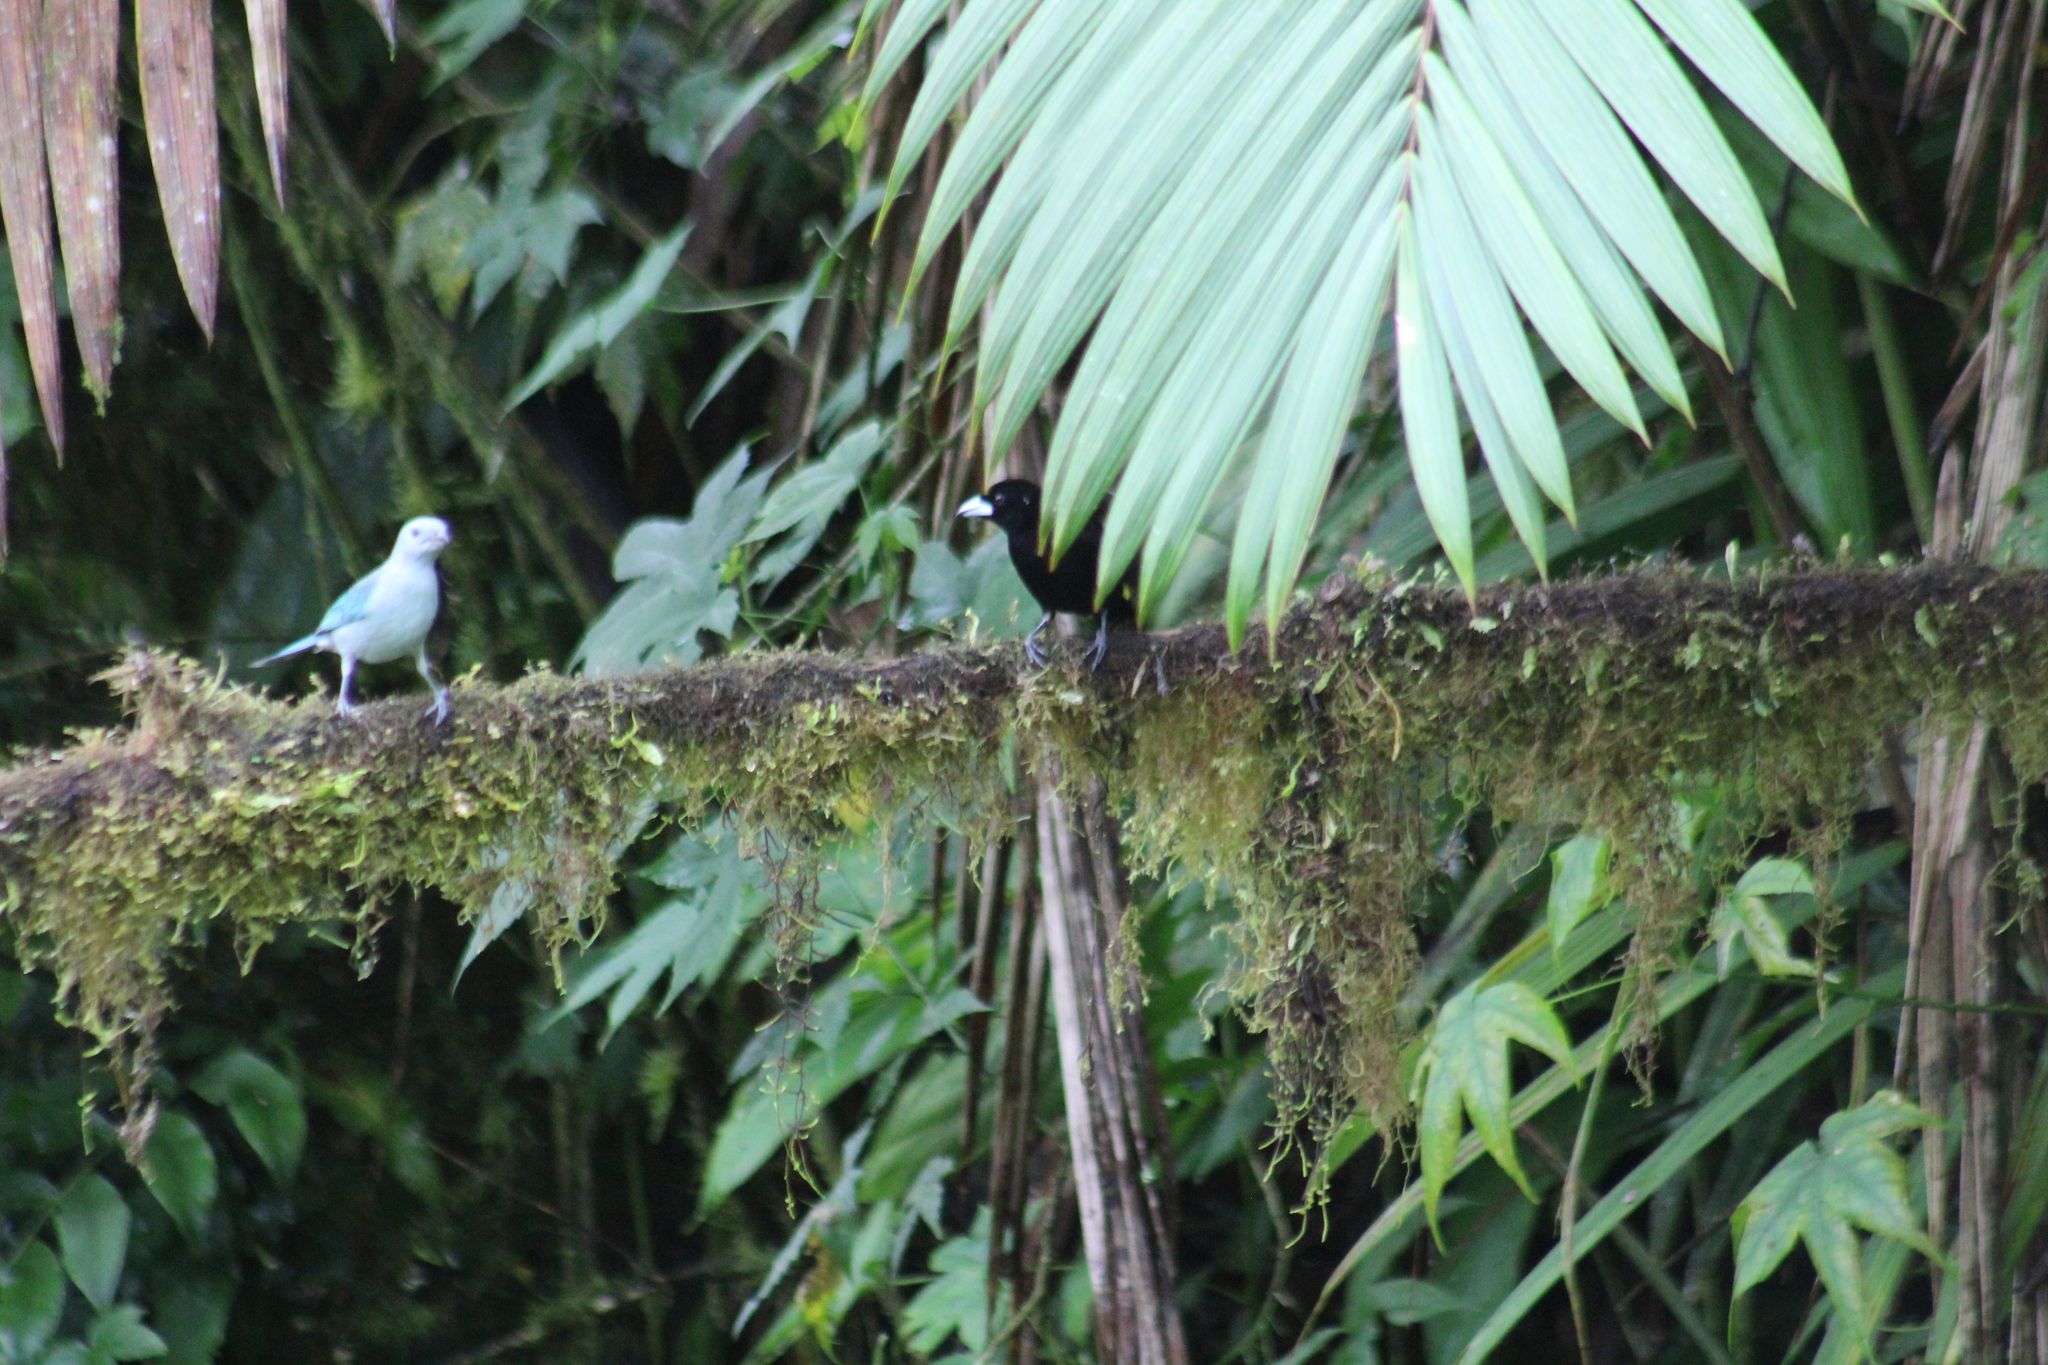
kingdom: Animalia
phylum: Chordata
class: Aves
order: Passeriformes
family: Thraupidae
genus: Ramphocelus
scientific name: Ramphocelus icteronotus
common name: Lemon-rumped tanager
